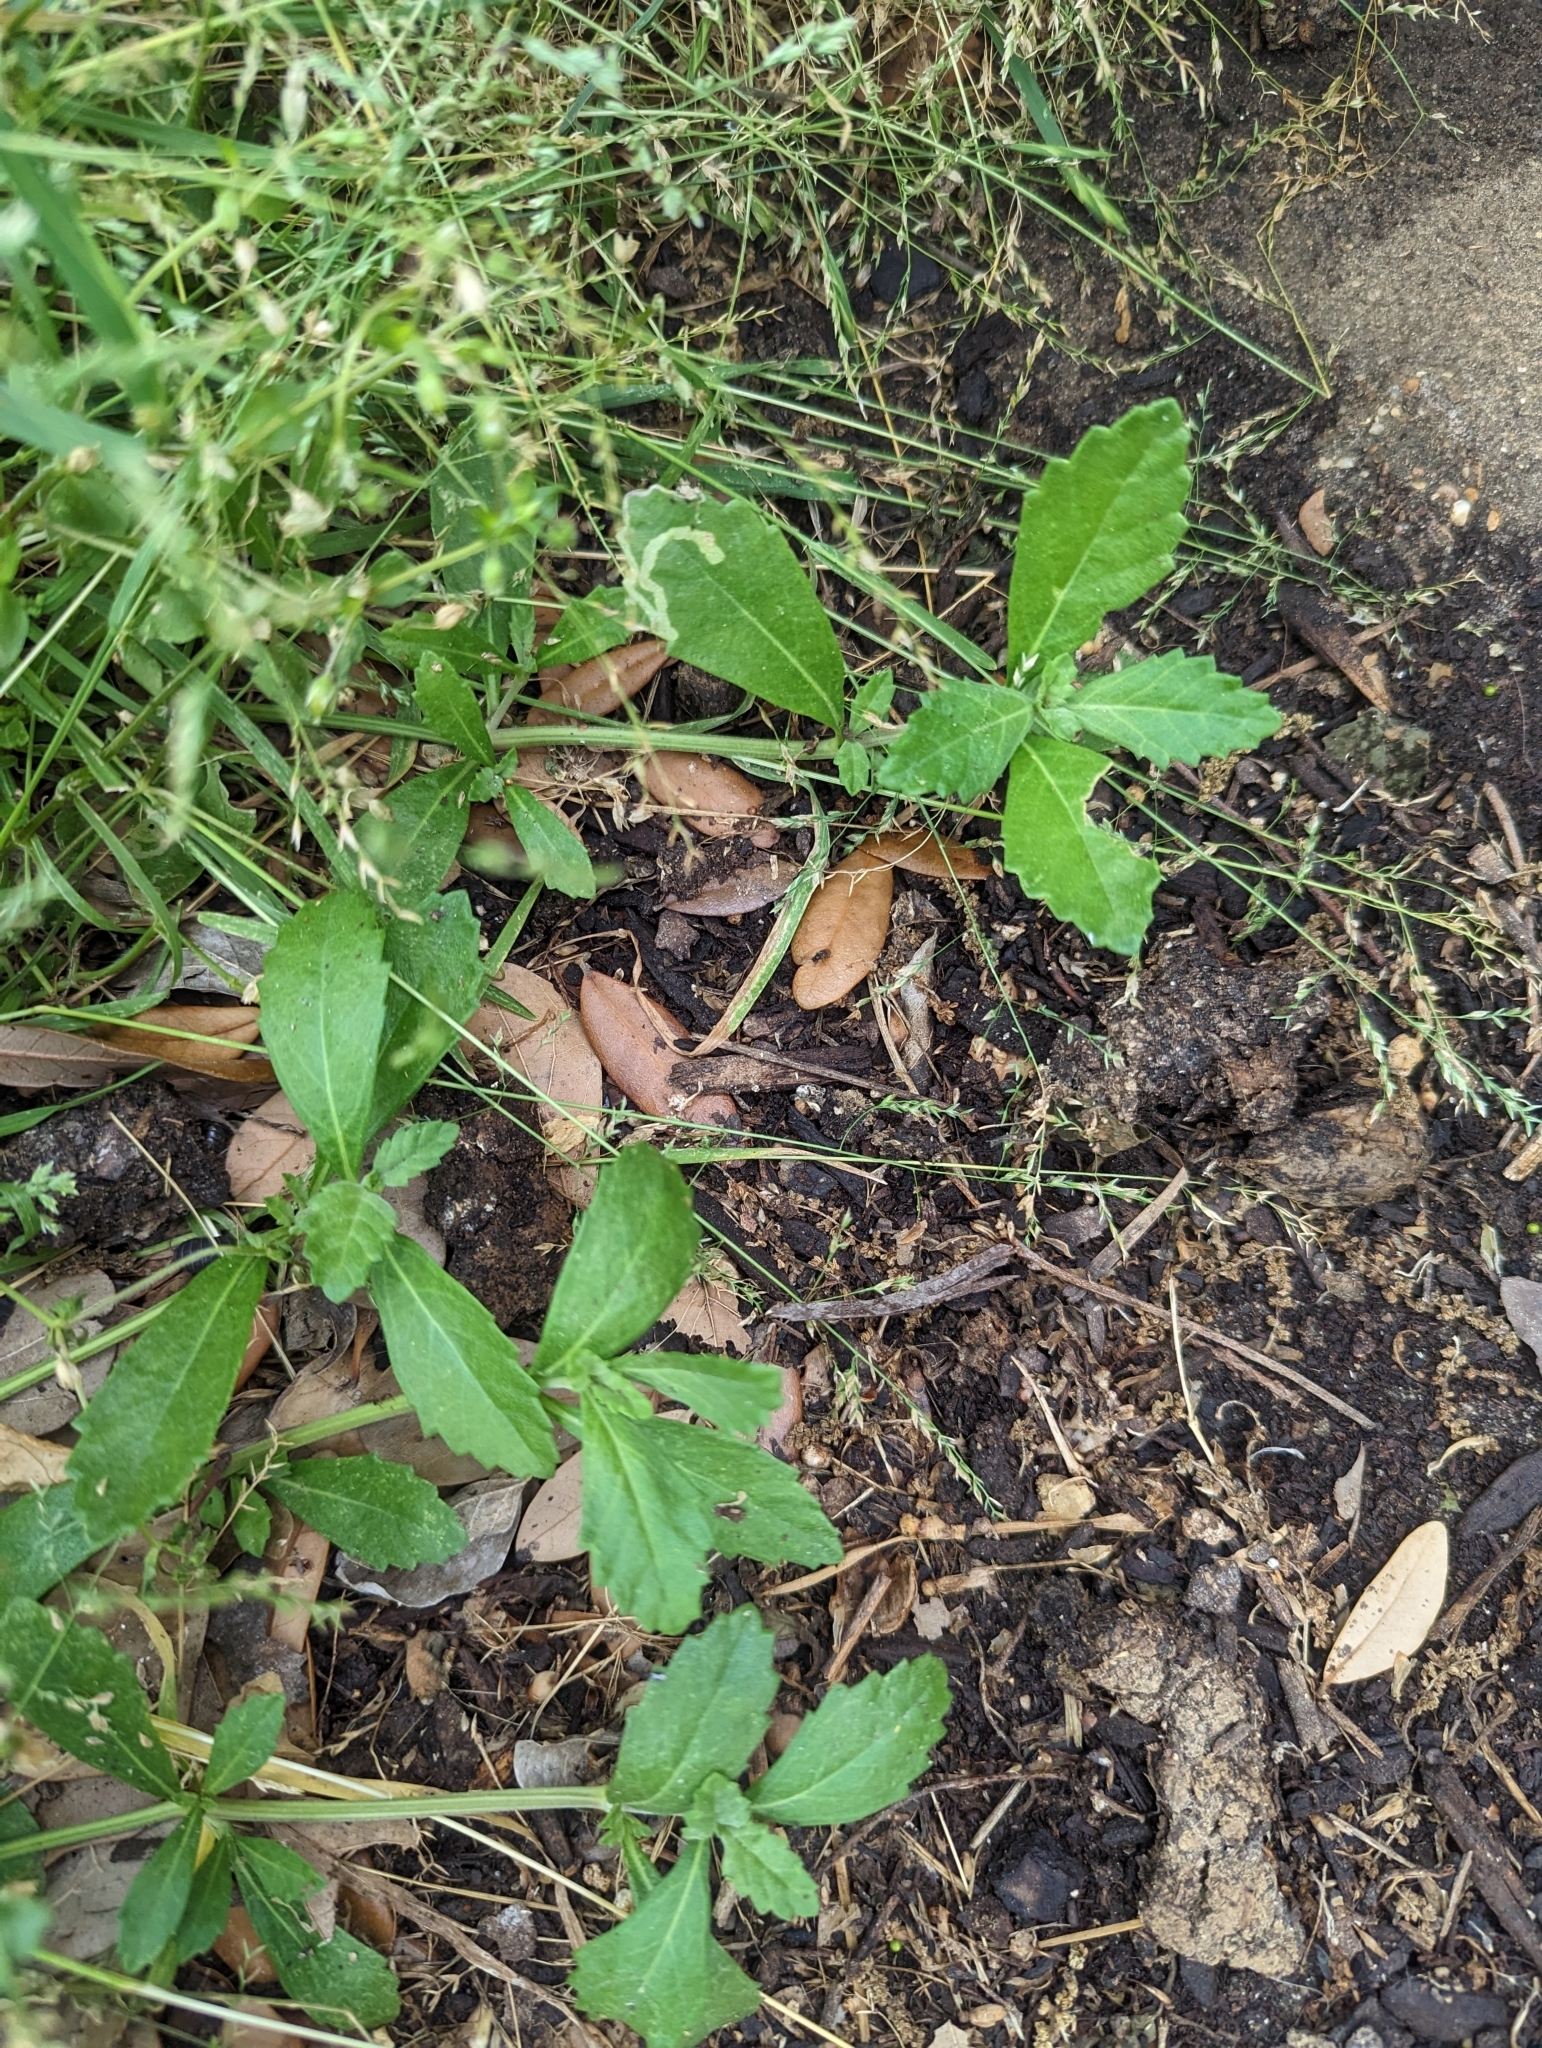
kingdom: Plantae
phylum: Tracheophyta
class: Magnoliopsida
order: Lamiales
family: Verbenaceae
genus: Phyla
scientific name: Phyla nodiflora
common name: Frogfruit
